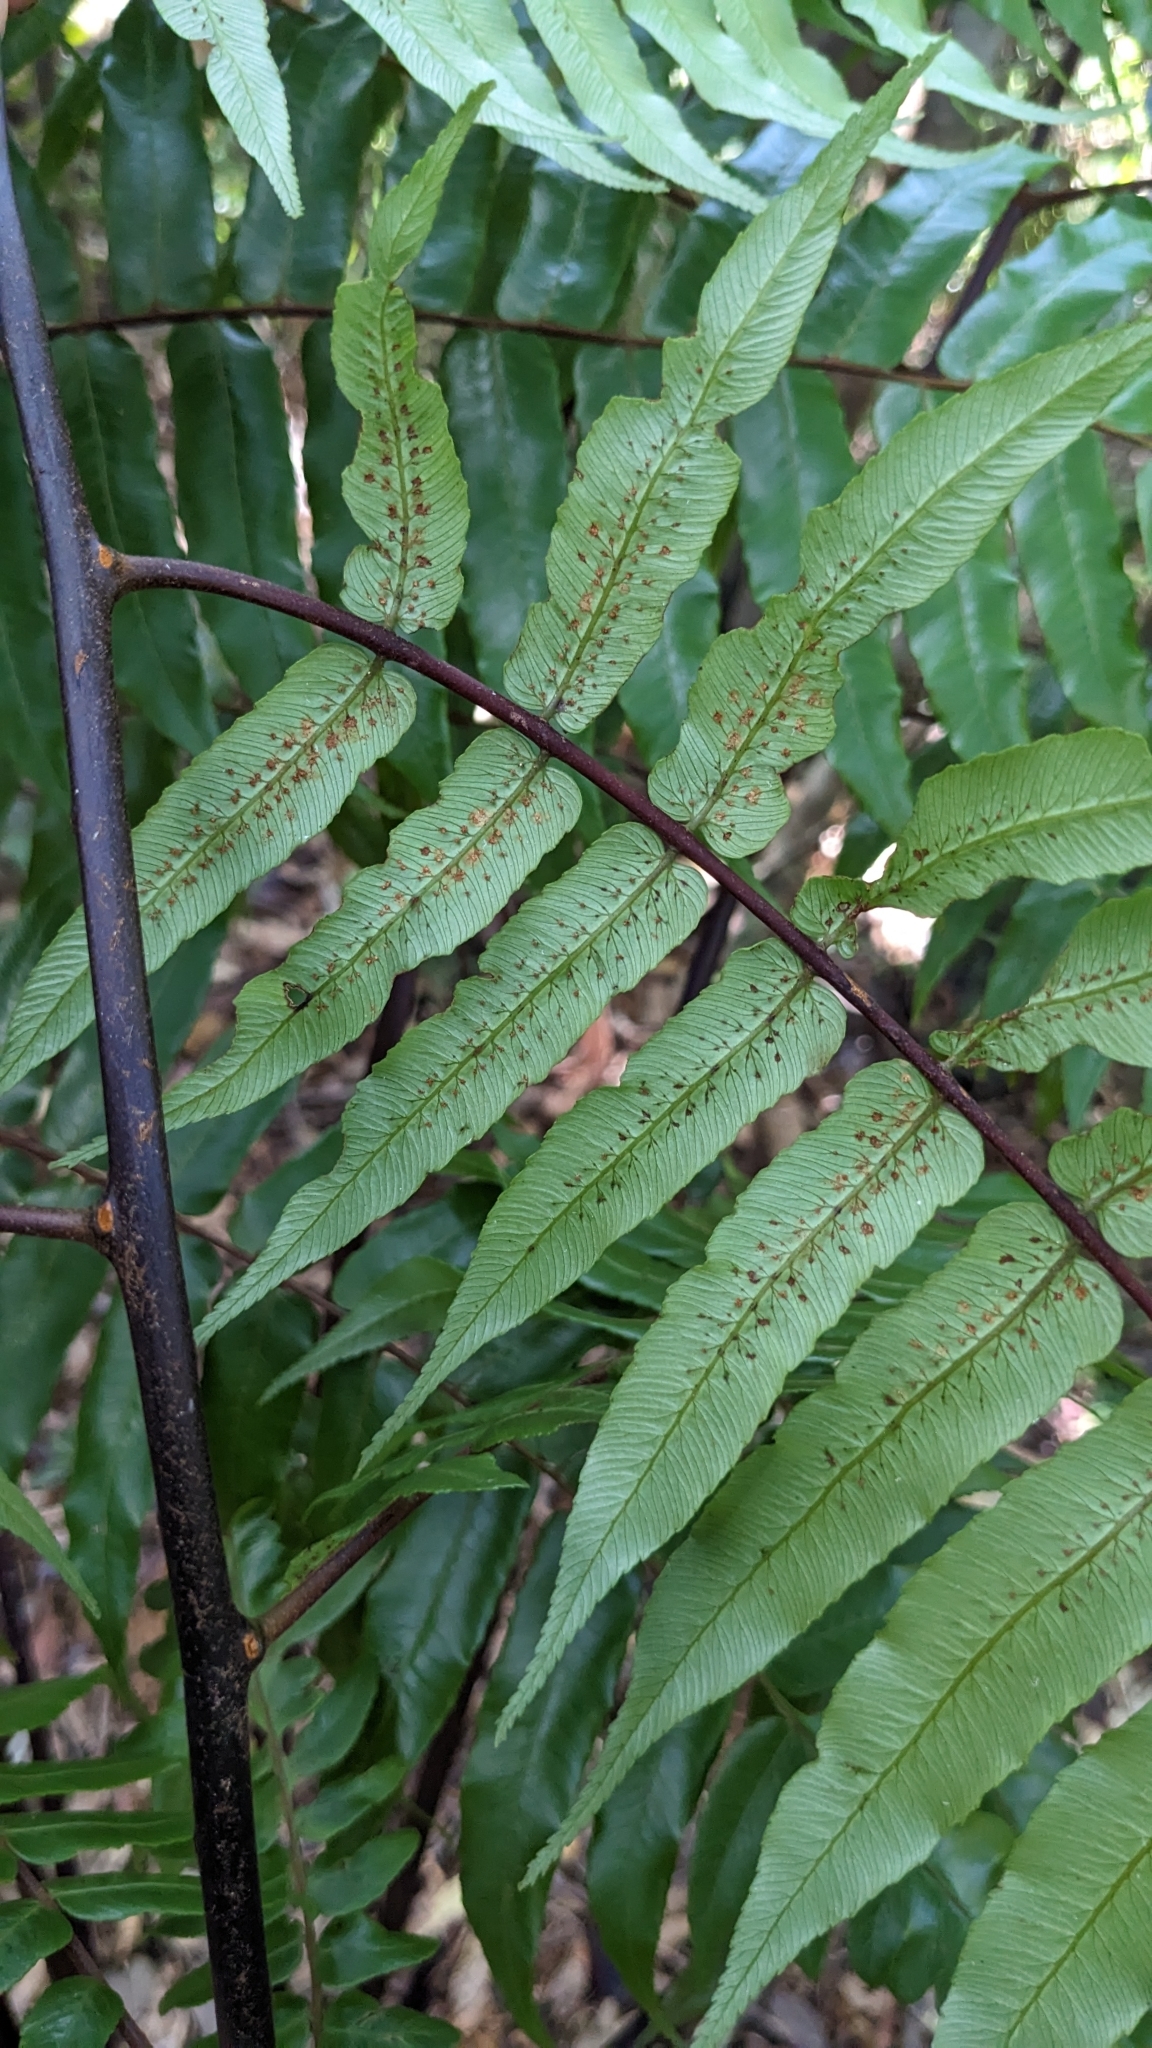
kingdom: Plantae
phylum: Tracheophyta
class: Polypodiopsida
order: Cyatheales
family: Cyatheaceae
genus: Gymnosphaera
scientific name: Gymnosphaera podophylla
